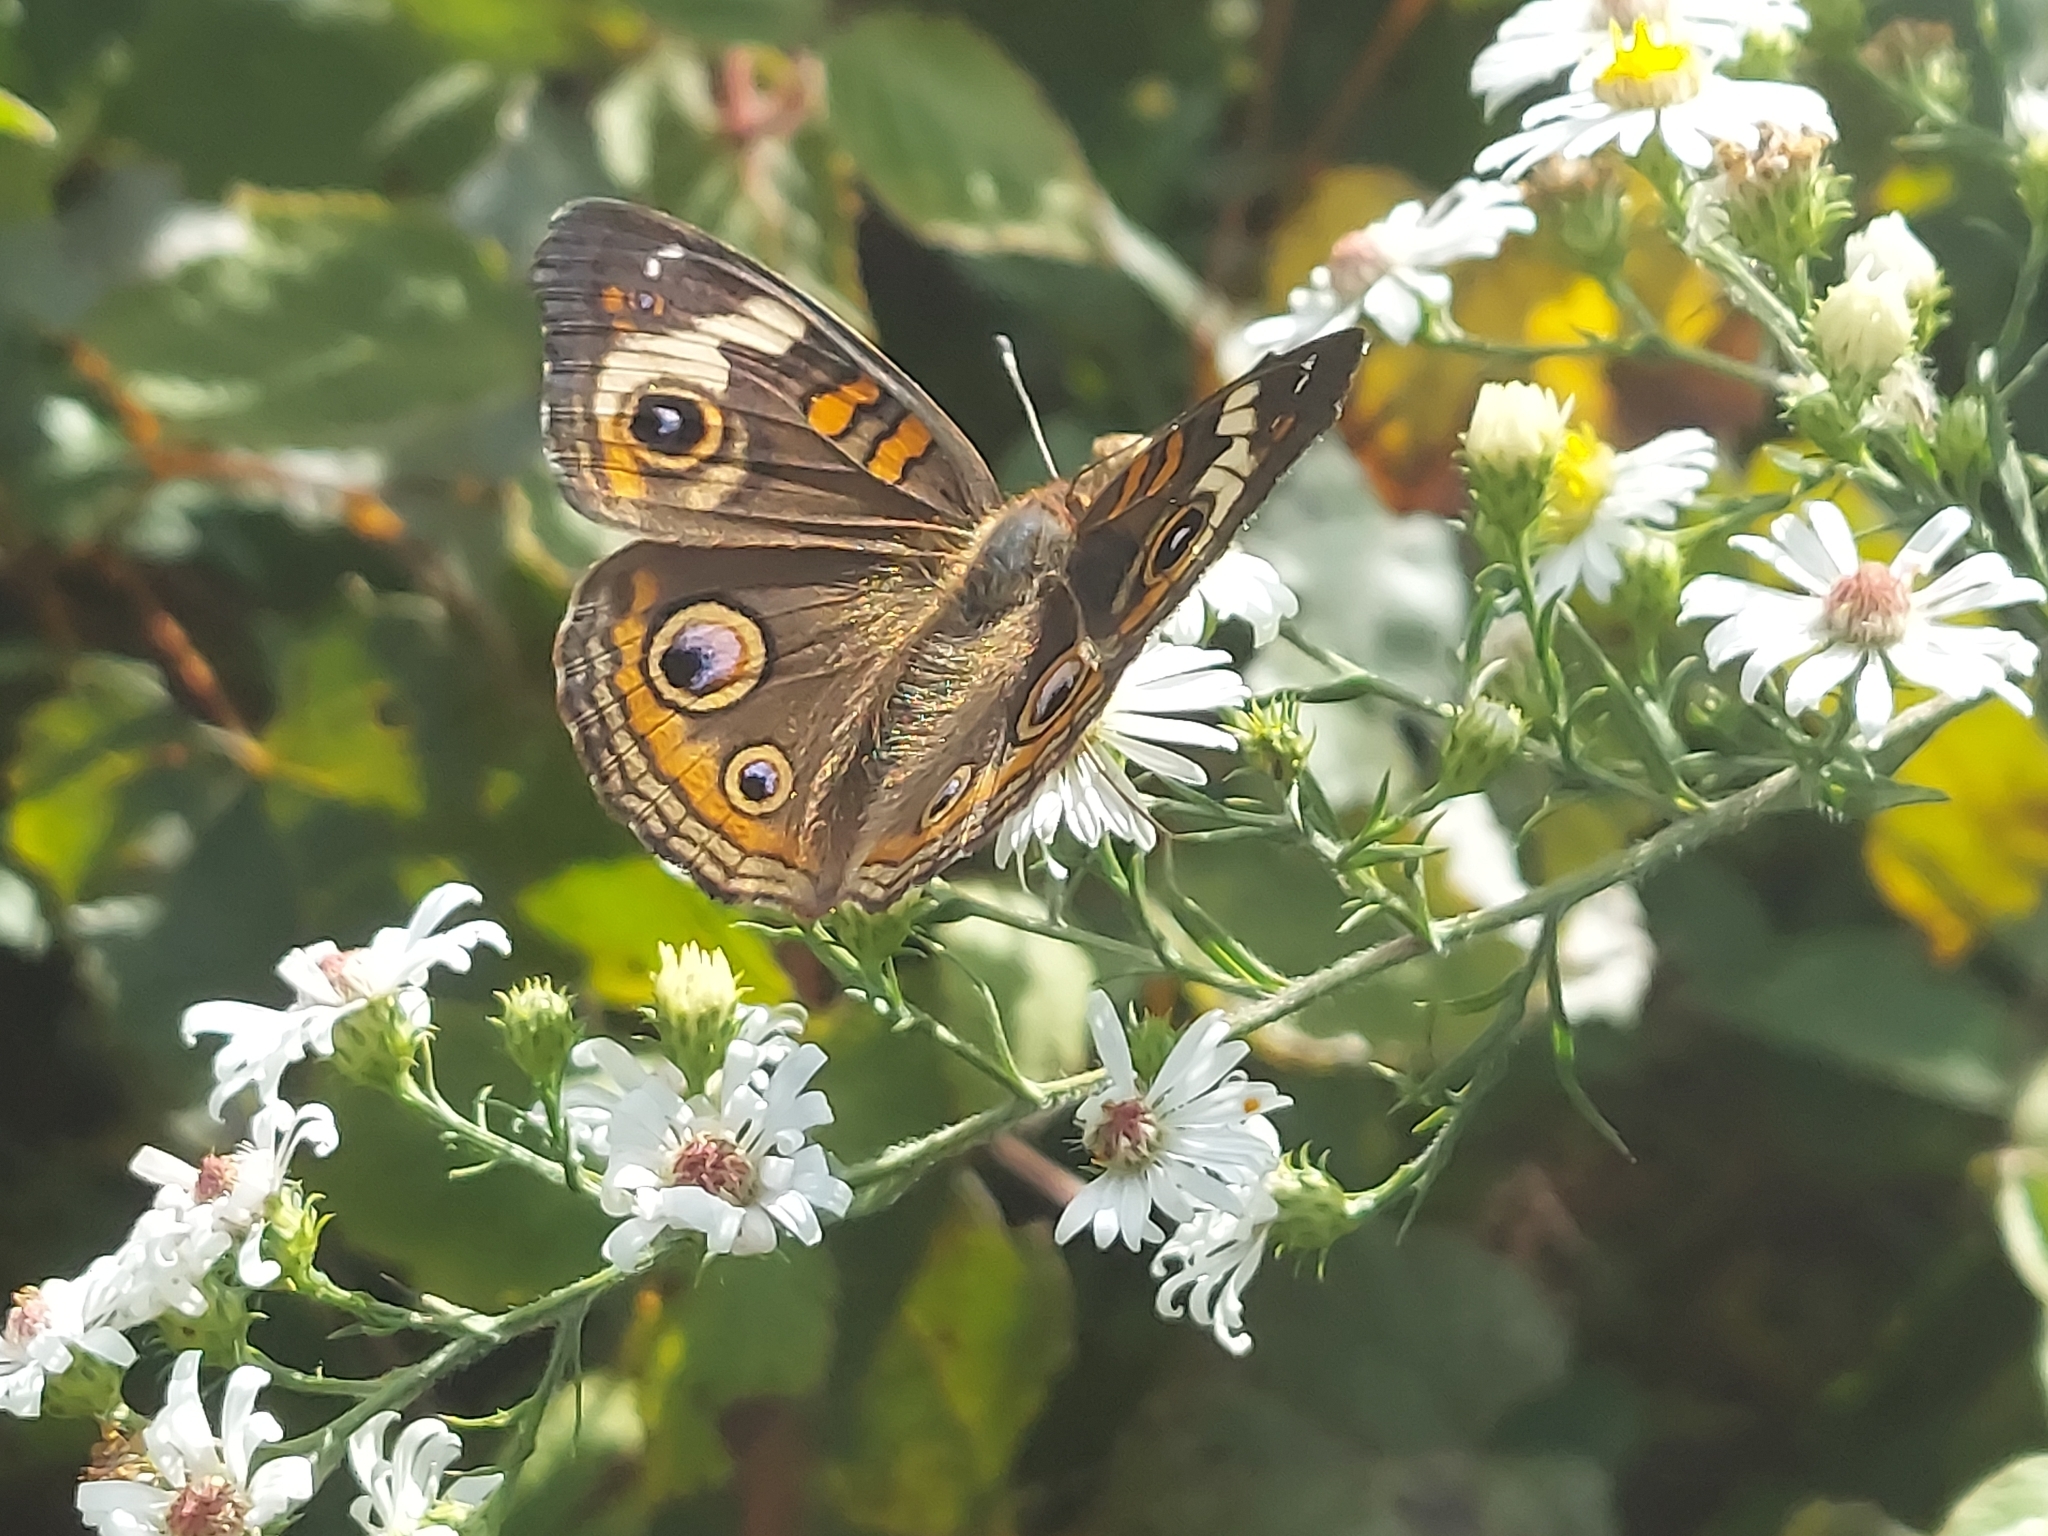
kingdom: Animalia
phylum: Arthropoda
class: Insecta
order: Lepidoptera
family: Nymphalidae
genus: Junonia
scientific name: Junonia coenia
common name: Common buckeye
